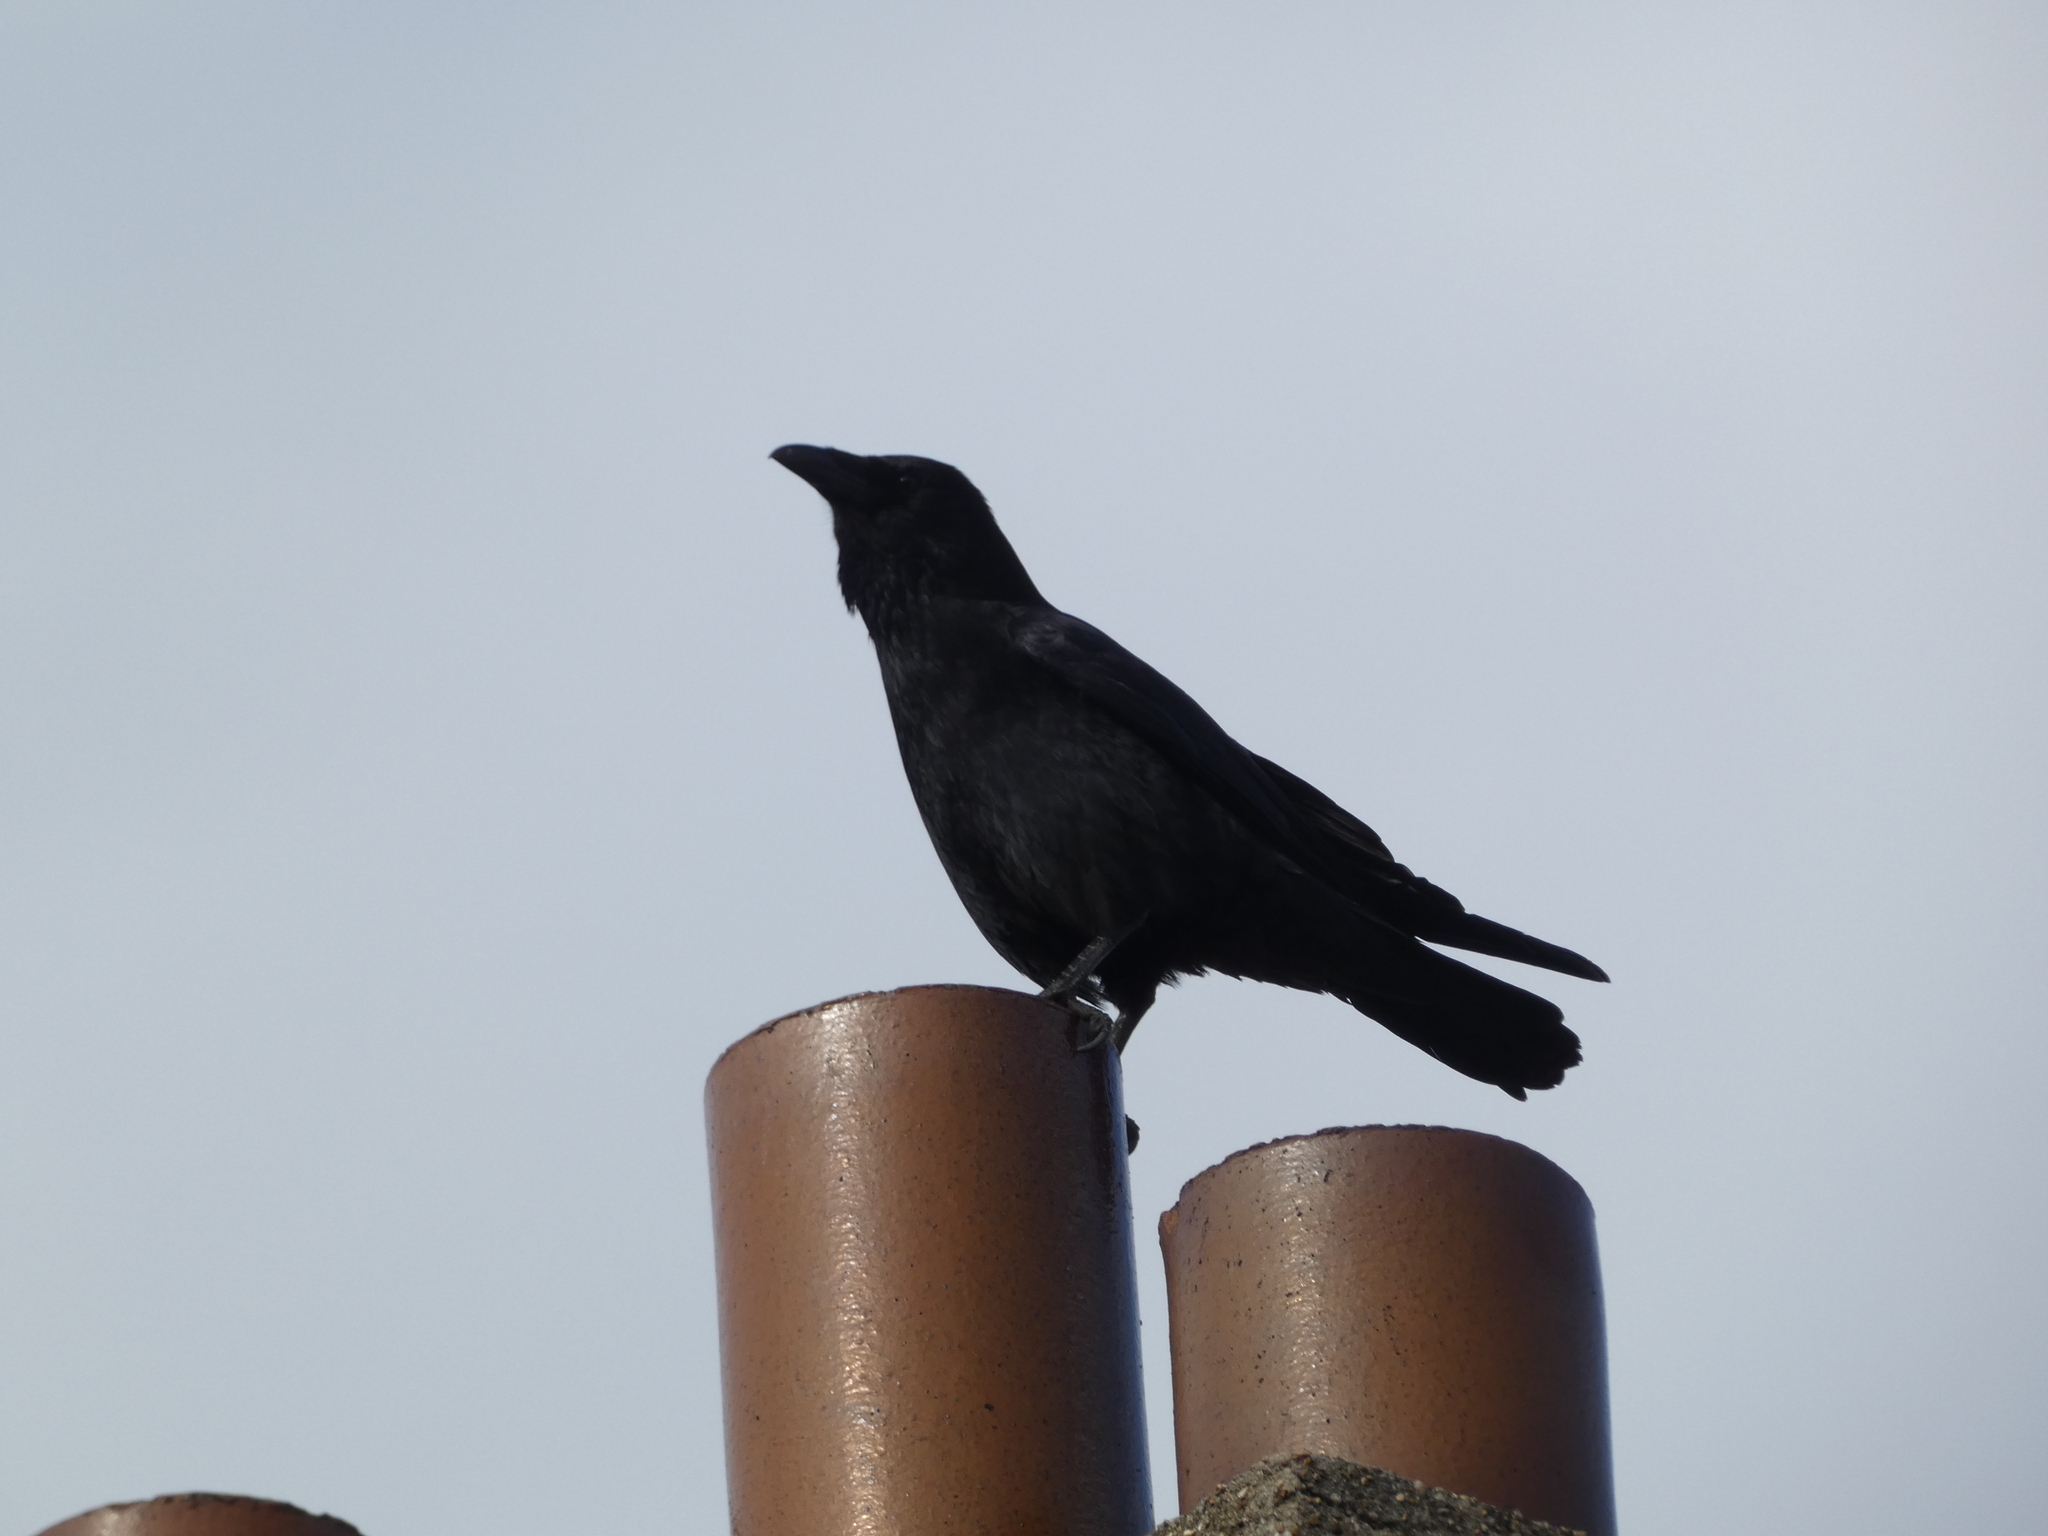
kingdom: Animalia
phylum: Chordata
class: Aves
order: Passeriformes
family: Corvidae
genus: Corvus
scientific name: Corvus corone
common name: Carrion crow
